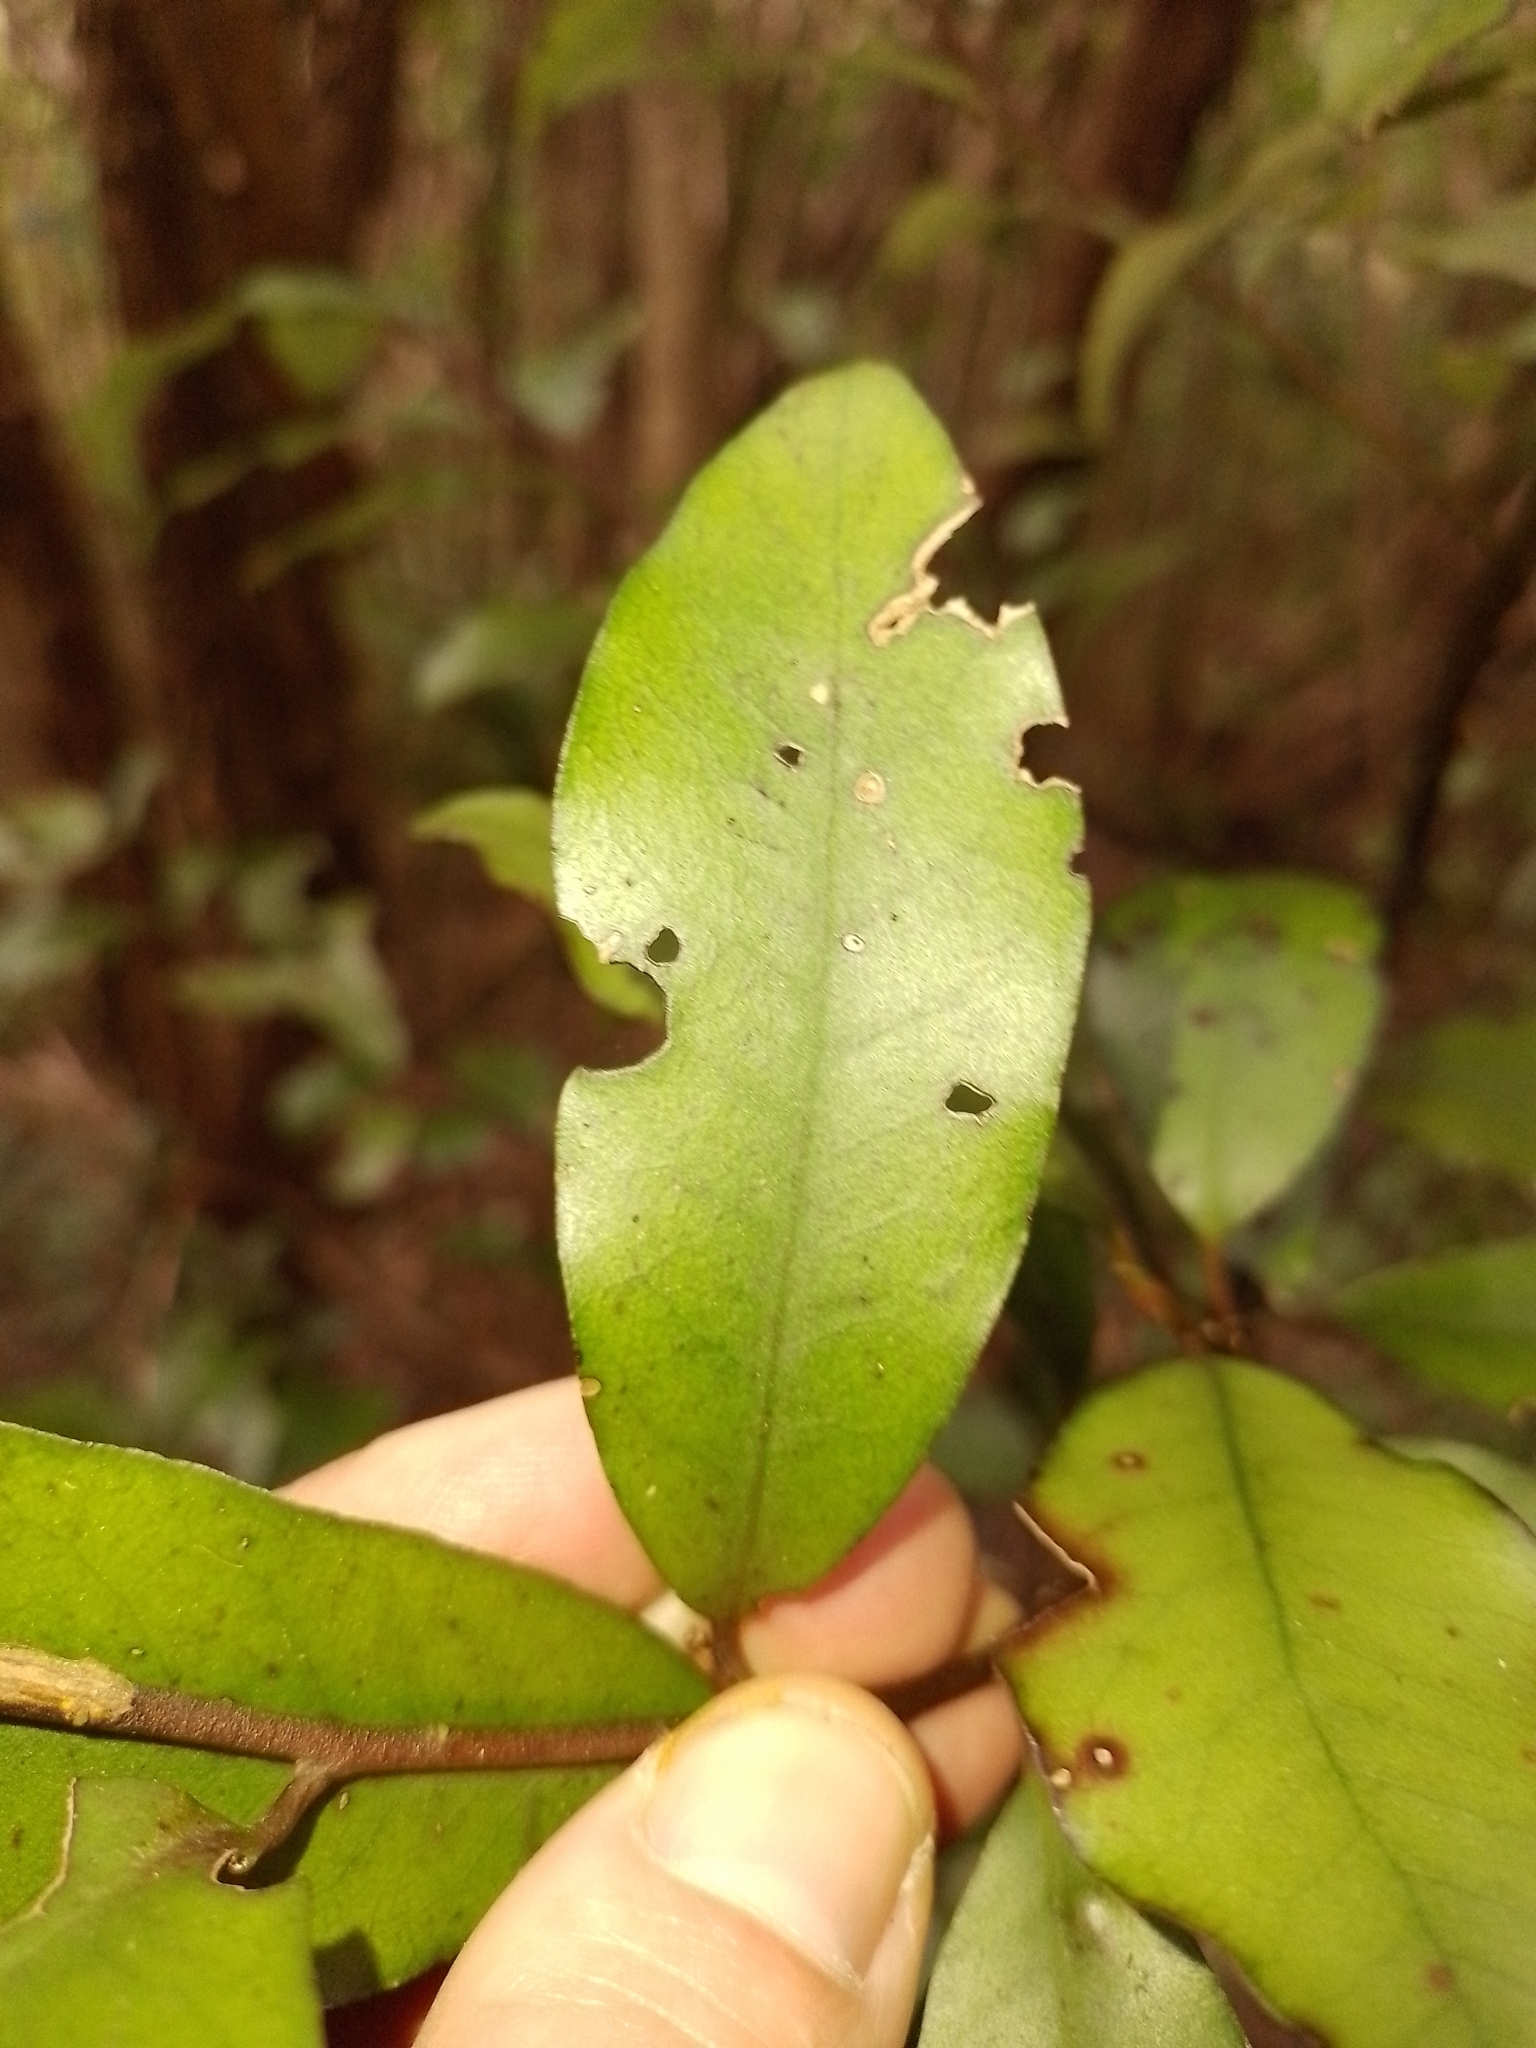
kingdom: Plantae
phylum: Tracheophyta
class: Magnoliopsida
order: Canellales
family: Winteraceae
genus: Pseudowintera
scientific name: Pseudowintera colorata
